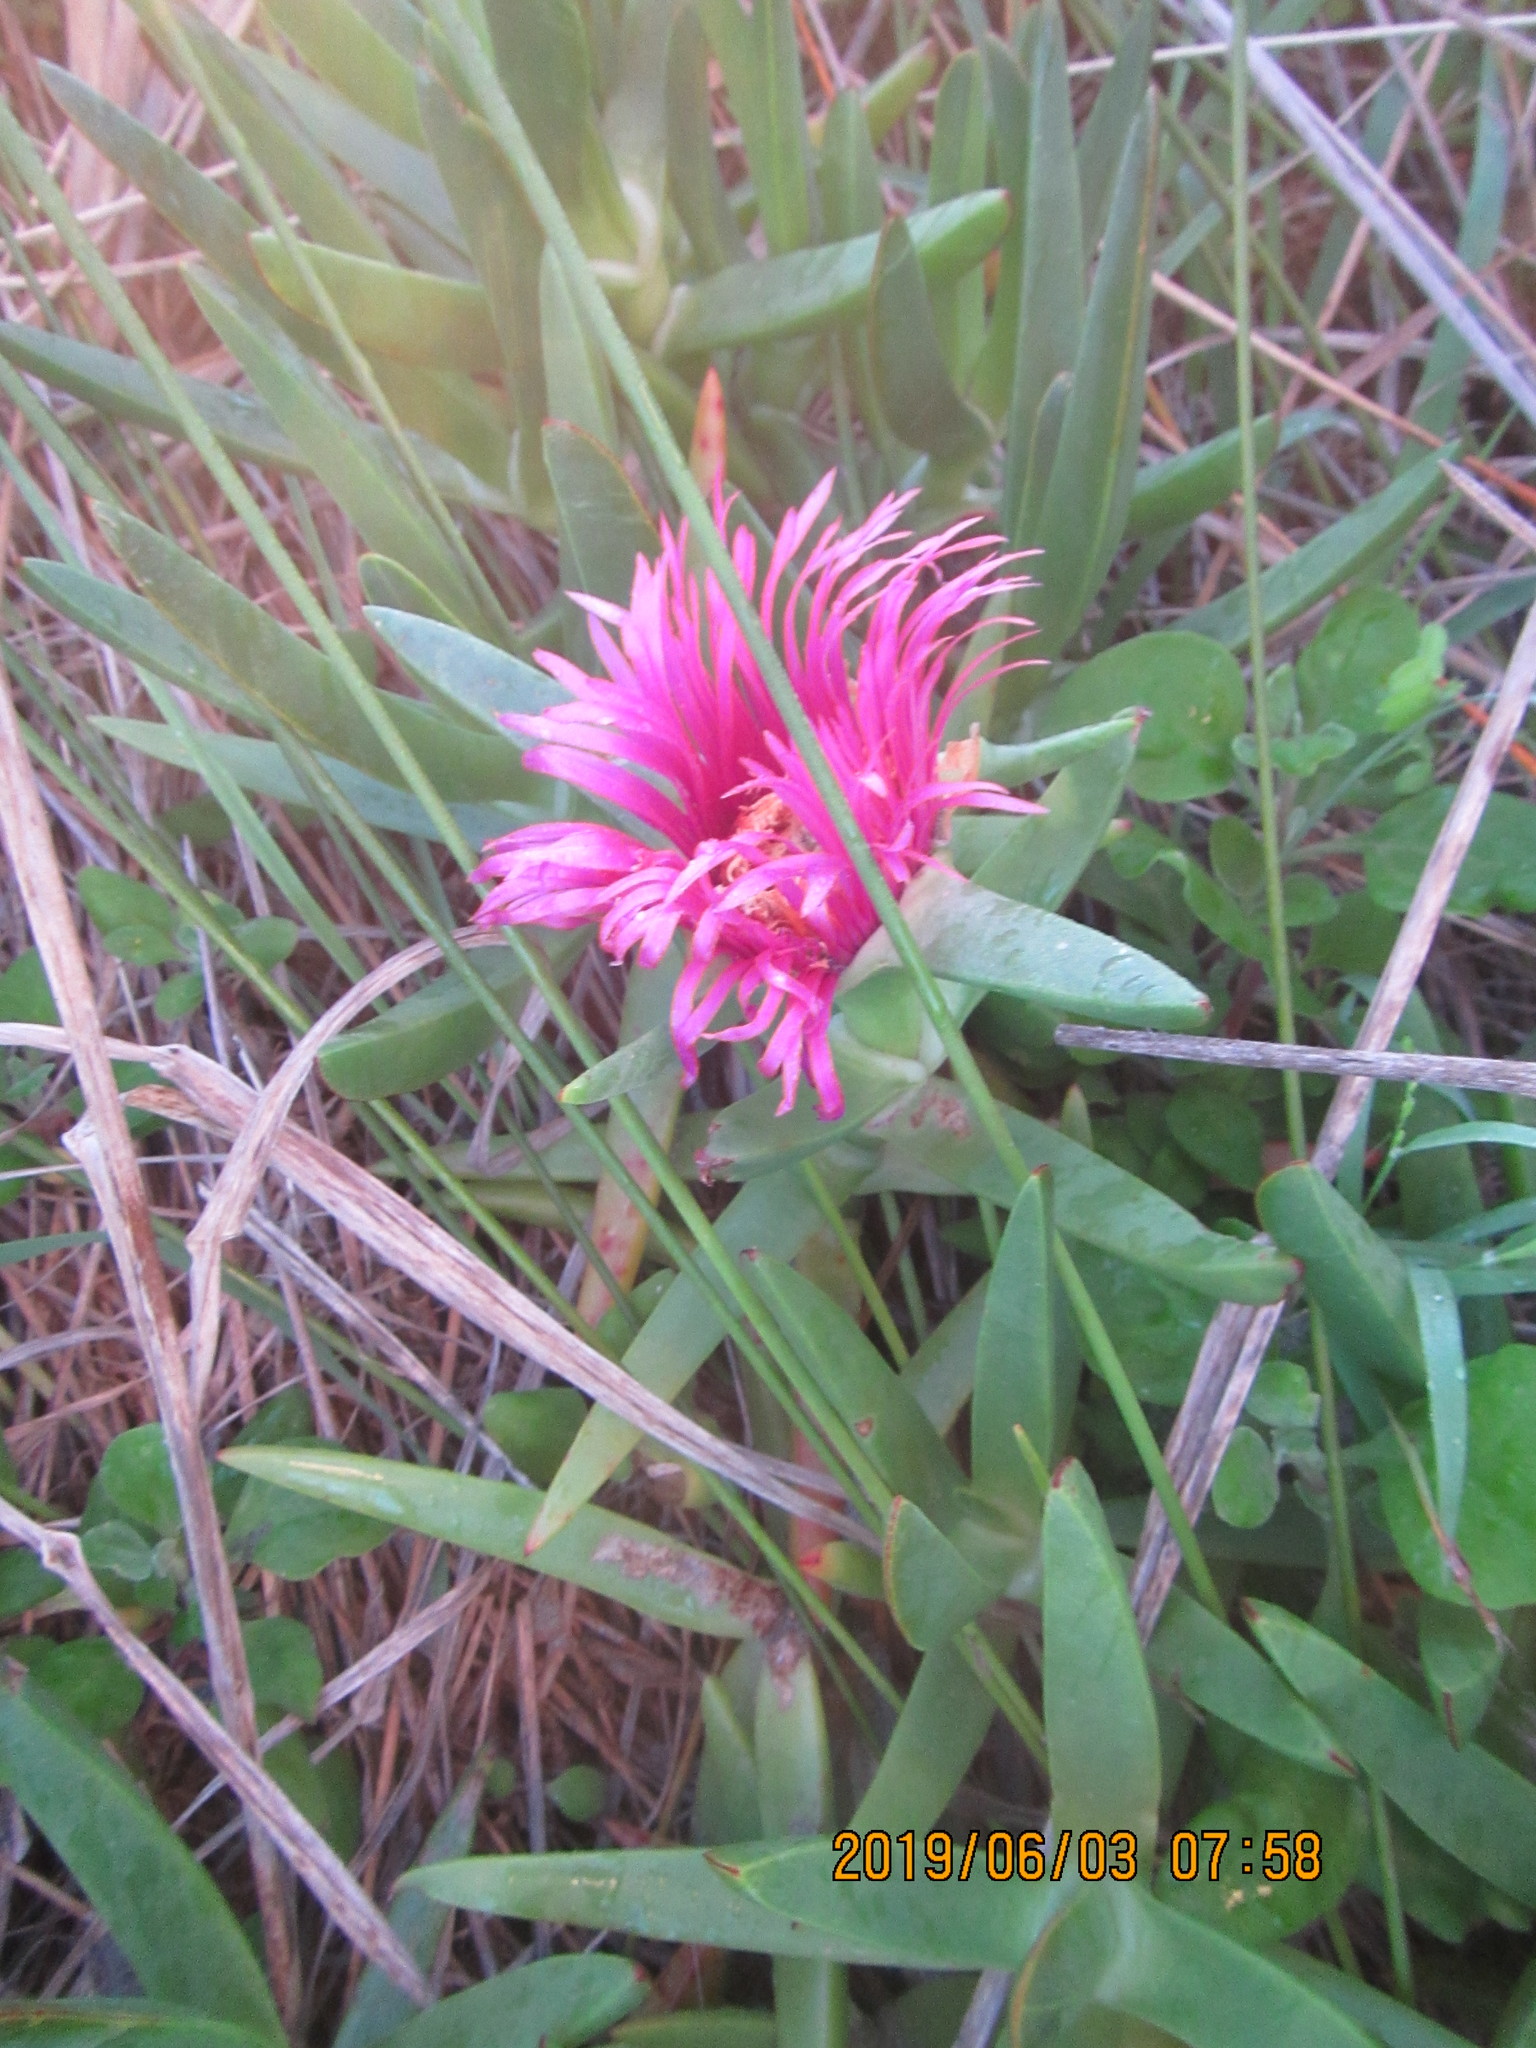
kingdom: Plantae
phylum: Tracheophyta
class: Magnoliopsida
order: Caryophyllales
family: Aizoaceae
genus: Carpobrotus
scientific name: Carpobrotus chilensis
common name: Sea fig
